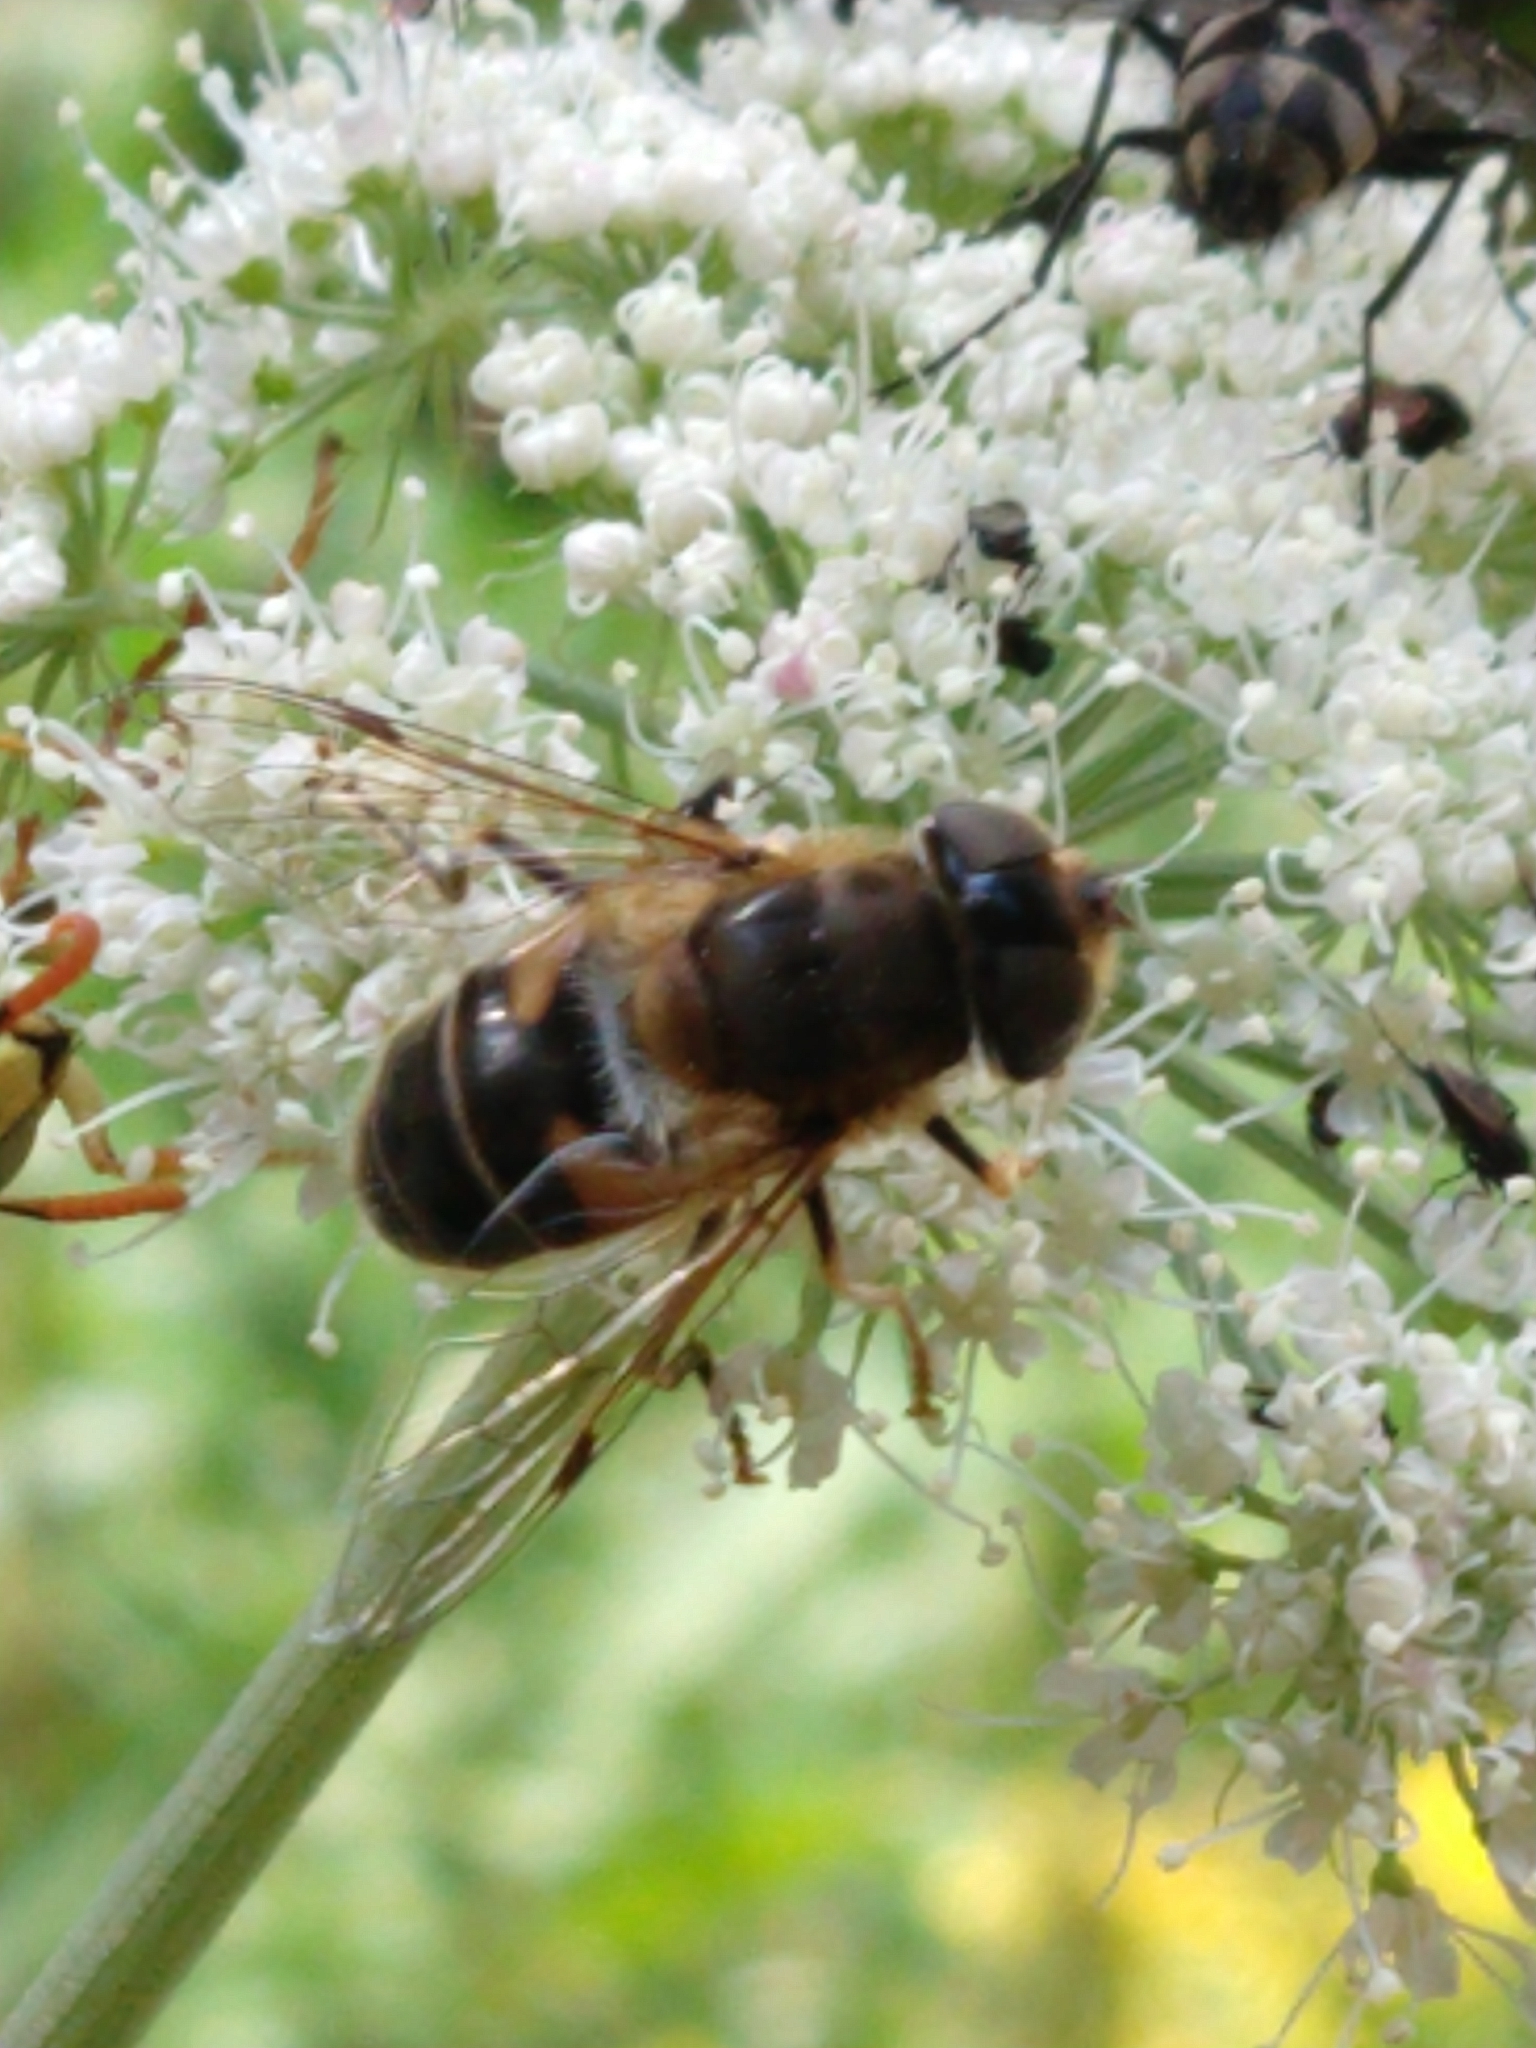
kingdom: Animalia
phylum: Arthropoda
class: Insecta
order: Diptera
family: Syrphidae
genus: Eristalis
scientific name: Eristalis pertinax
